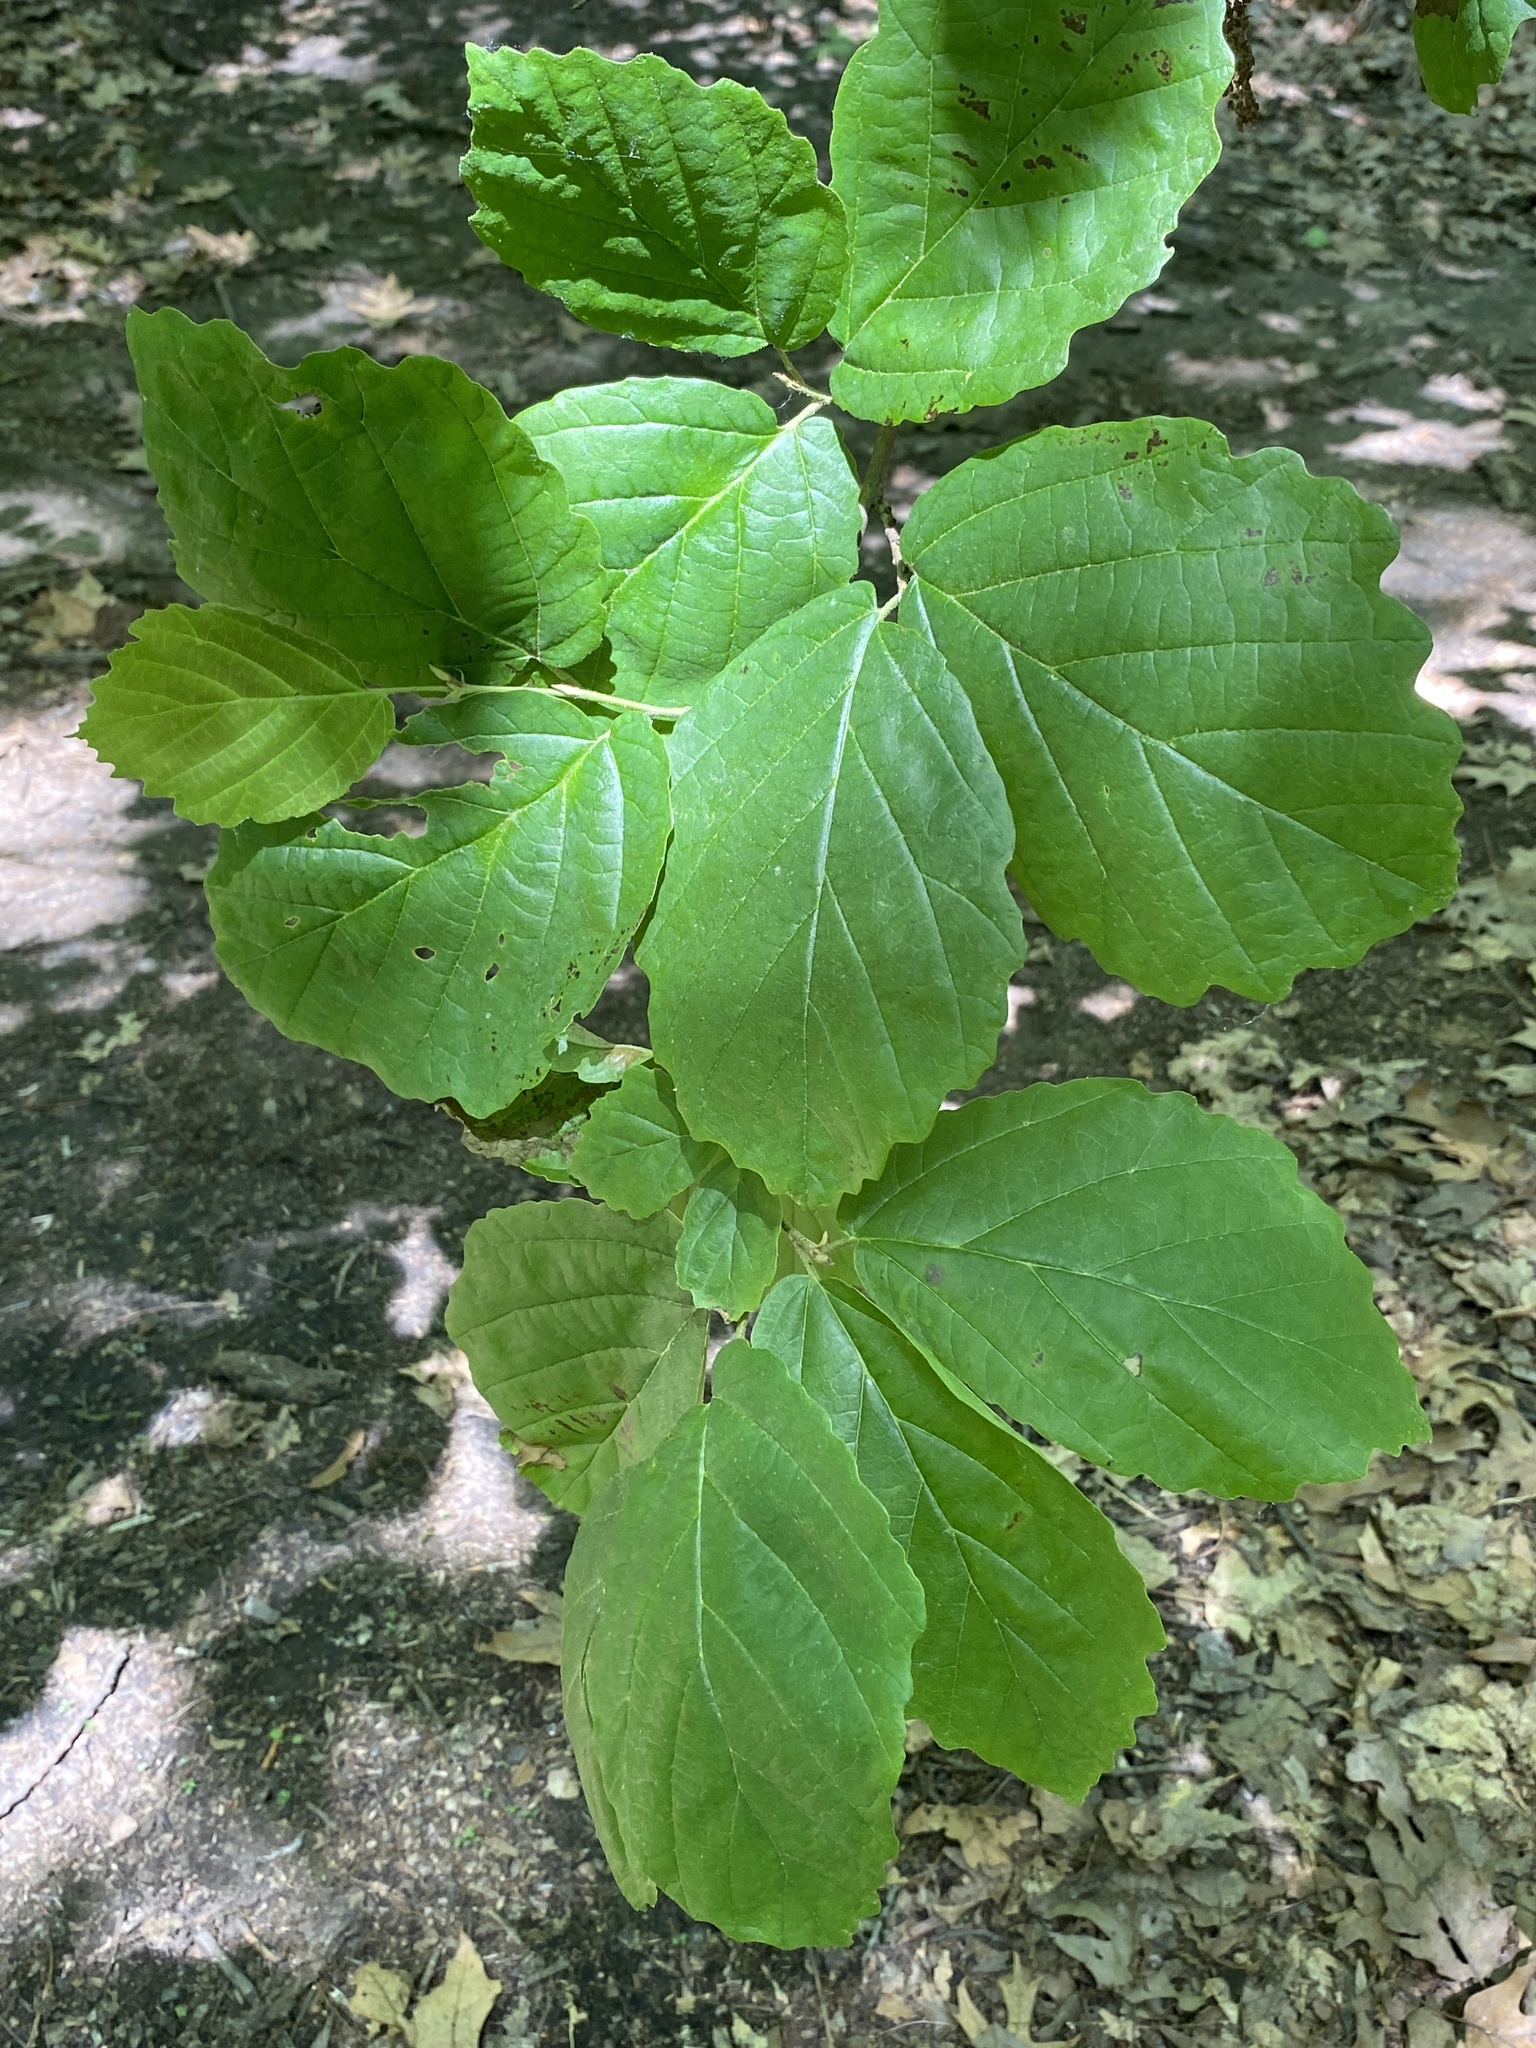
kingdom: Plantae
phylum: Tracheophyta
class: Magnoliopsida
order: Saxifragales
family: Hamamelidaceae
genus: Hamamelis
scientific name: Hamamelis virginiana
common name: Witch-hazel
